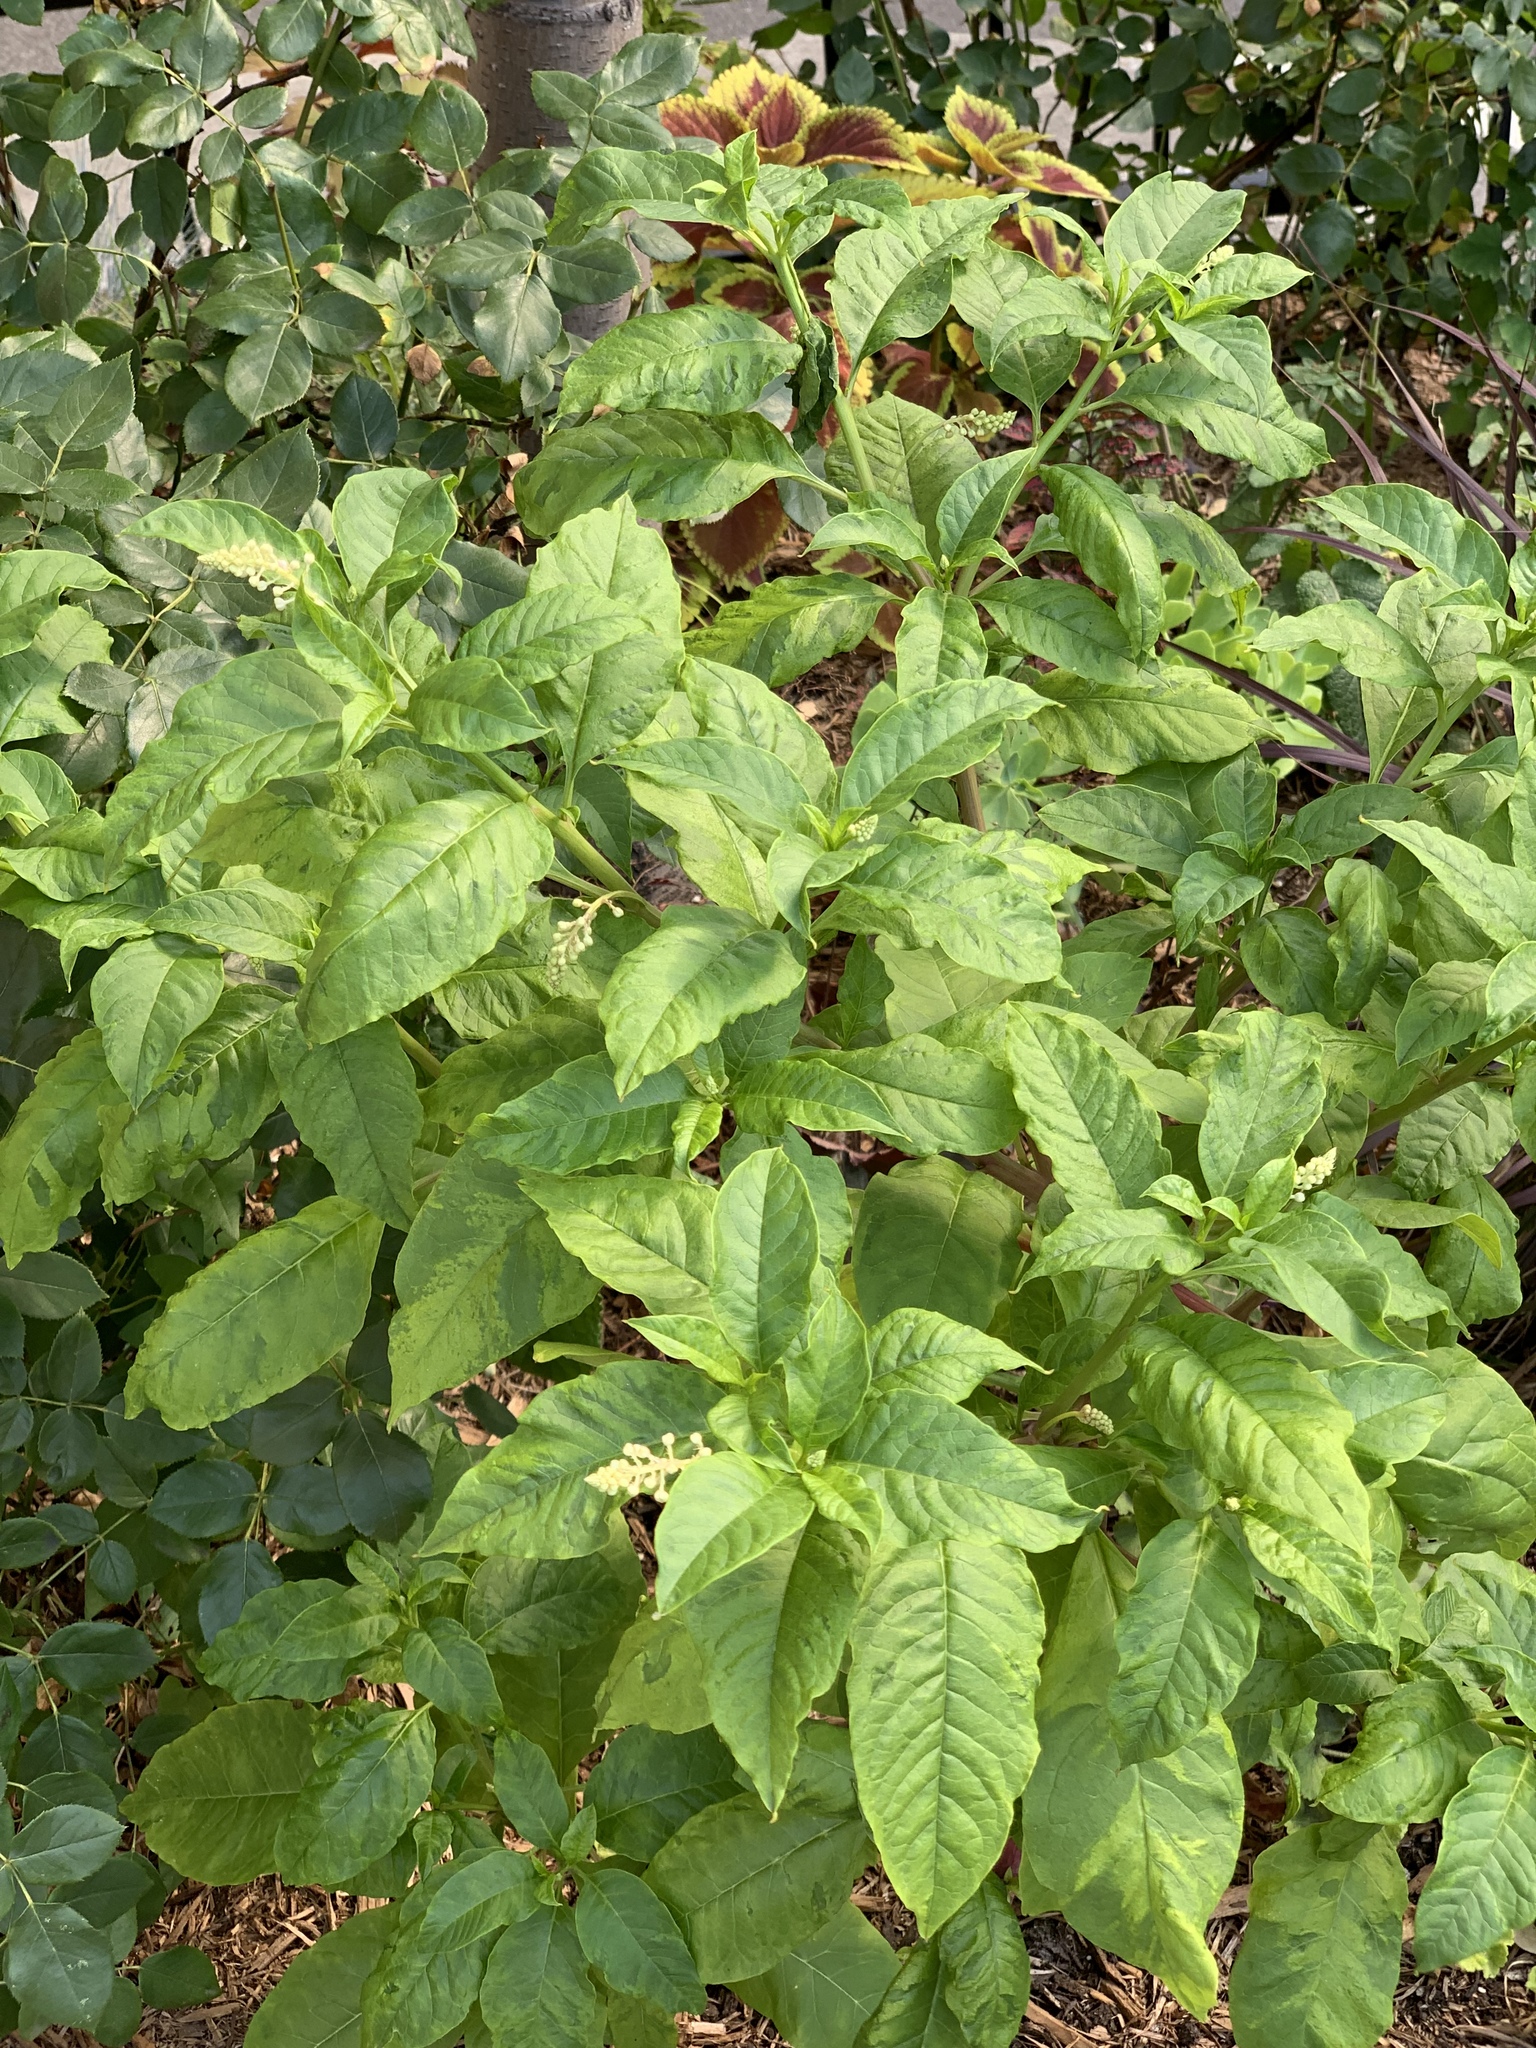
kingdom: Plantae
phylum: Tracheophyta
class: Magnoliopsida
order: Caryophyllales
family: Phytolaccaceae
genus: Phytolacca
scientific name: Phytolacca americana
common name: American pokeweed
